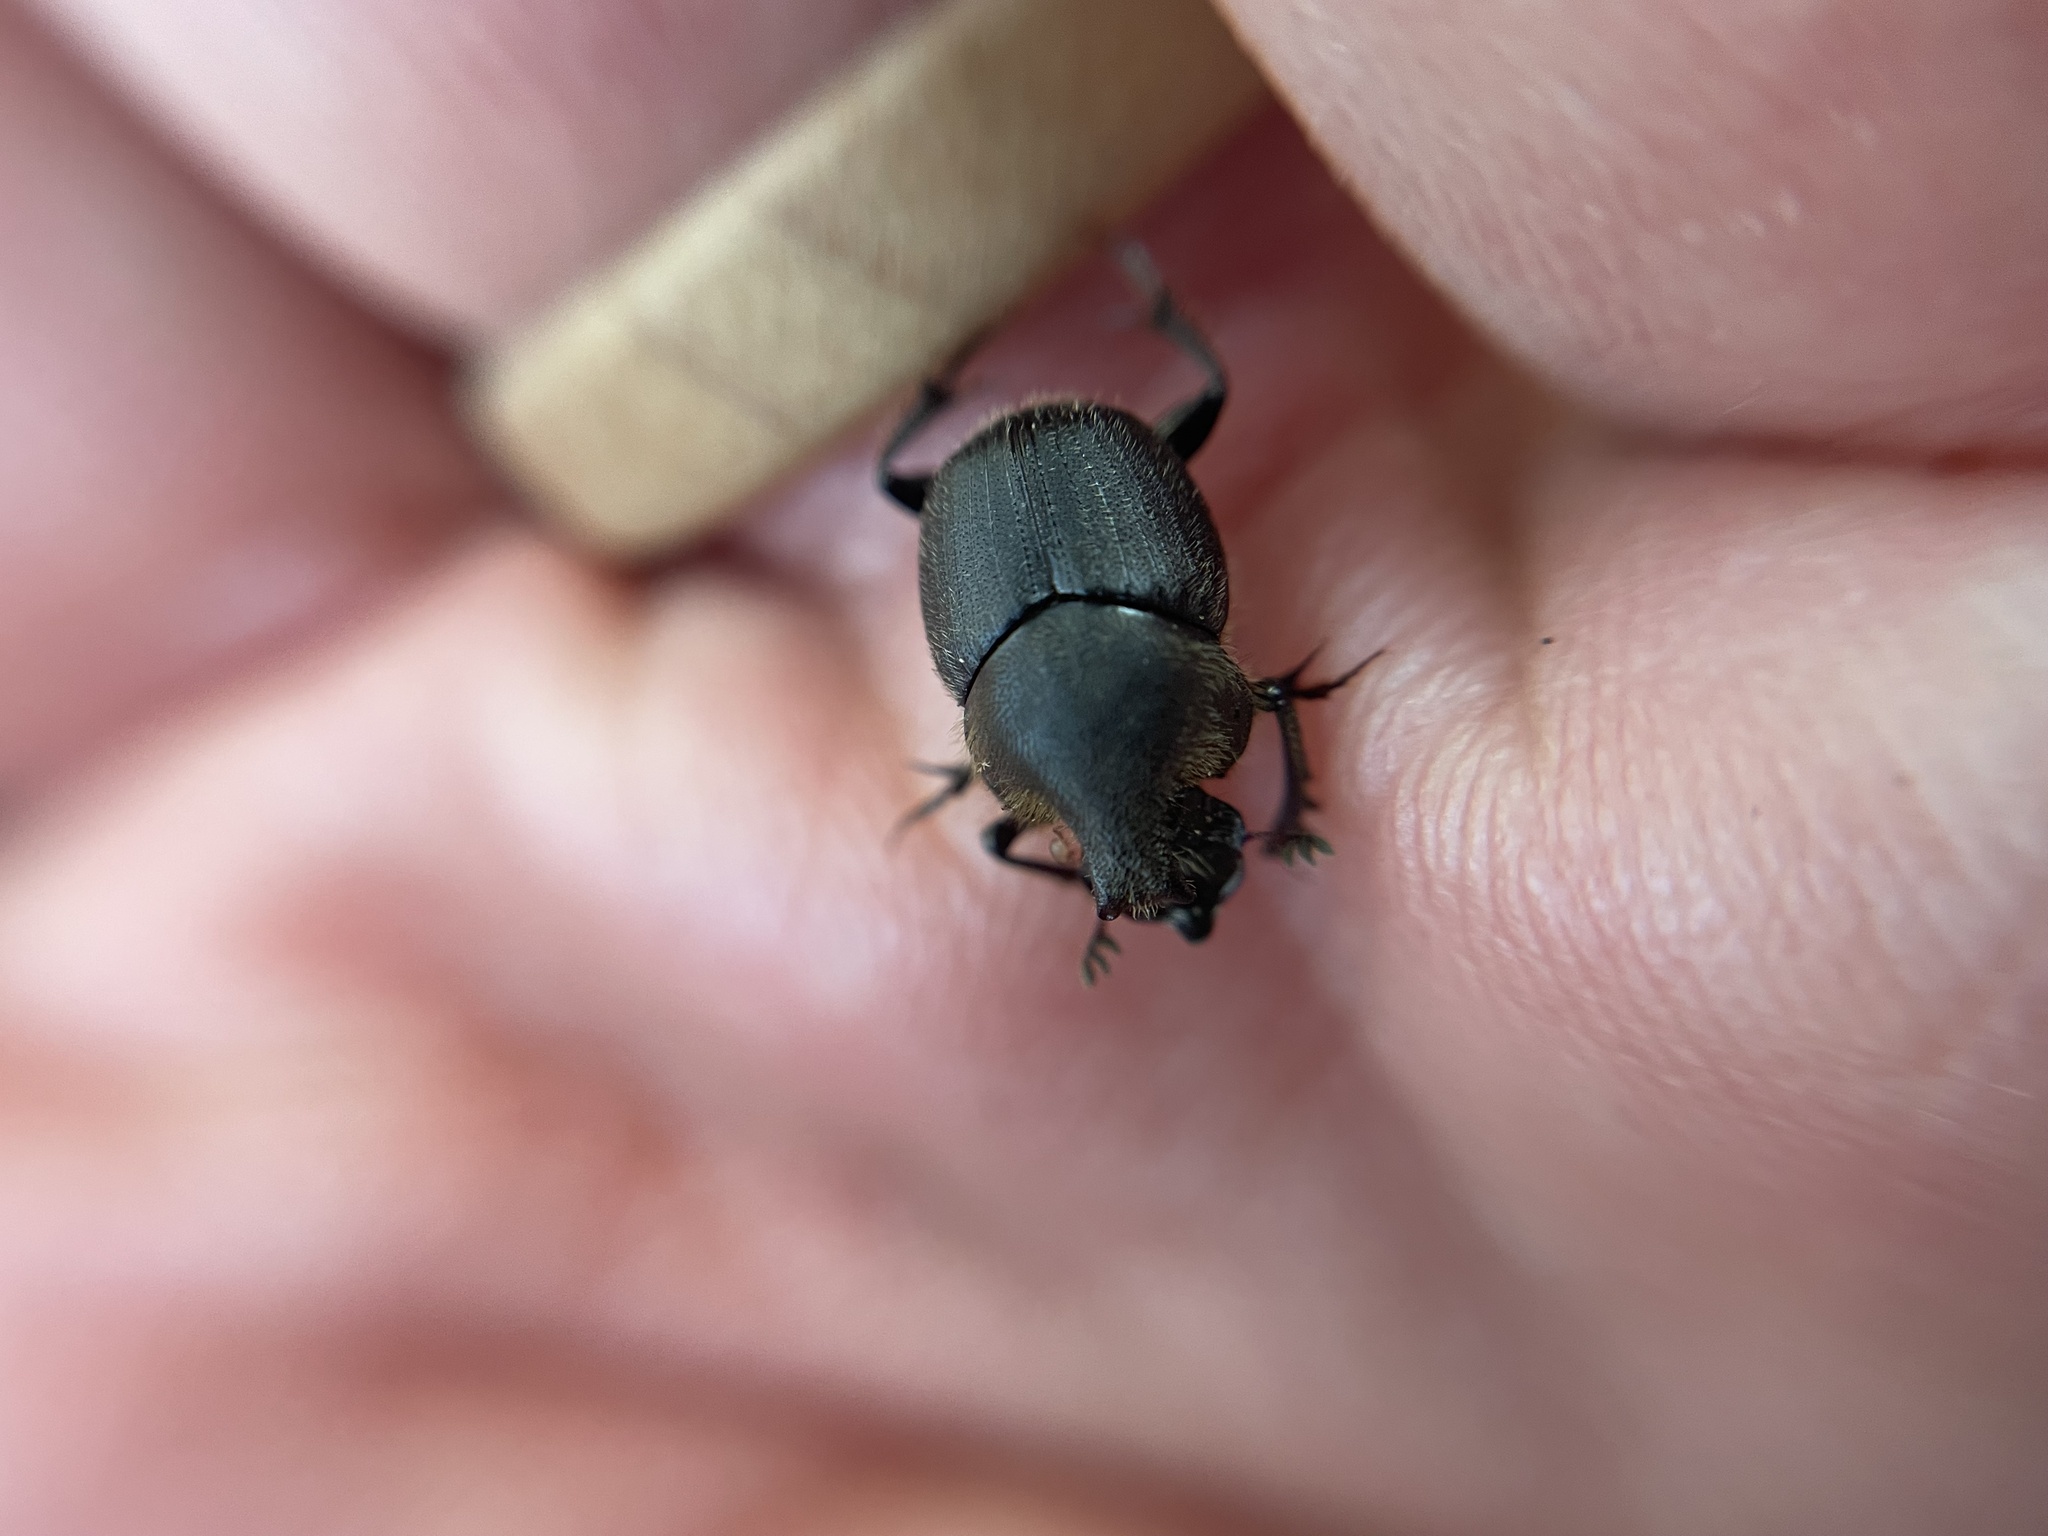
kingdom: Animalia
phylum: Arthropoda
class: Insecta
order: Coleoptera
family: Scarabaeidae
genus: Onthophagus
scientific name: Onthophagus hecate
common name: Scooped scarab
